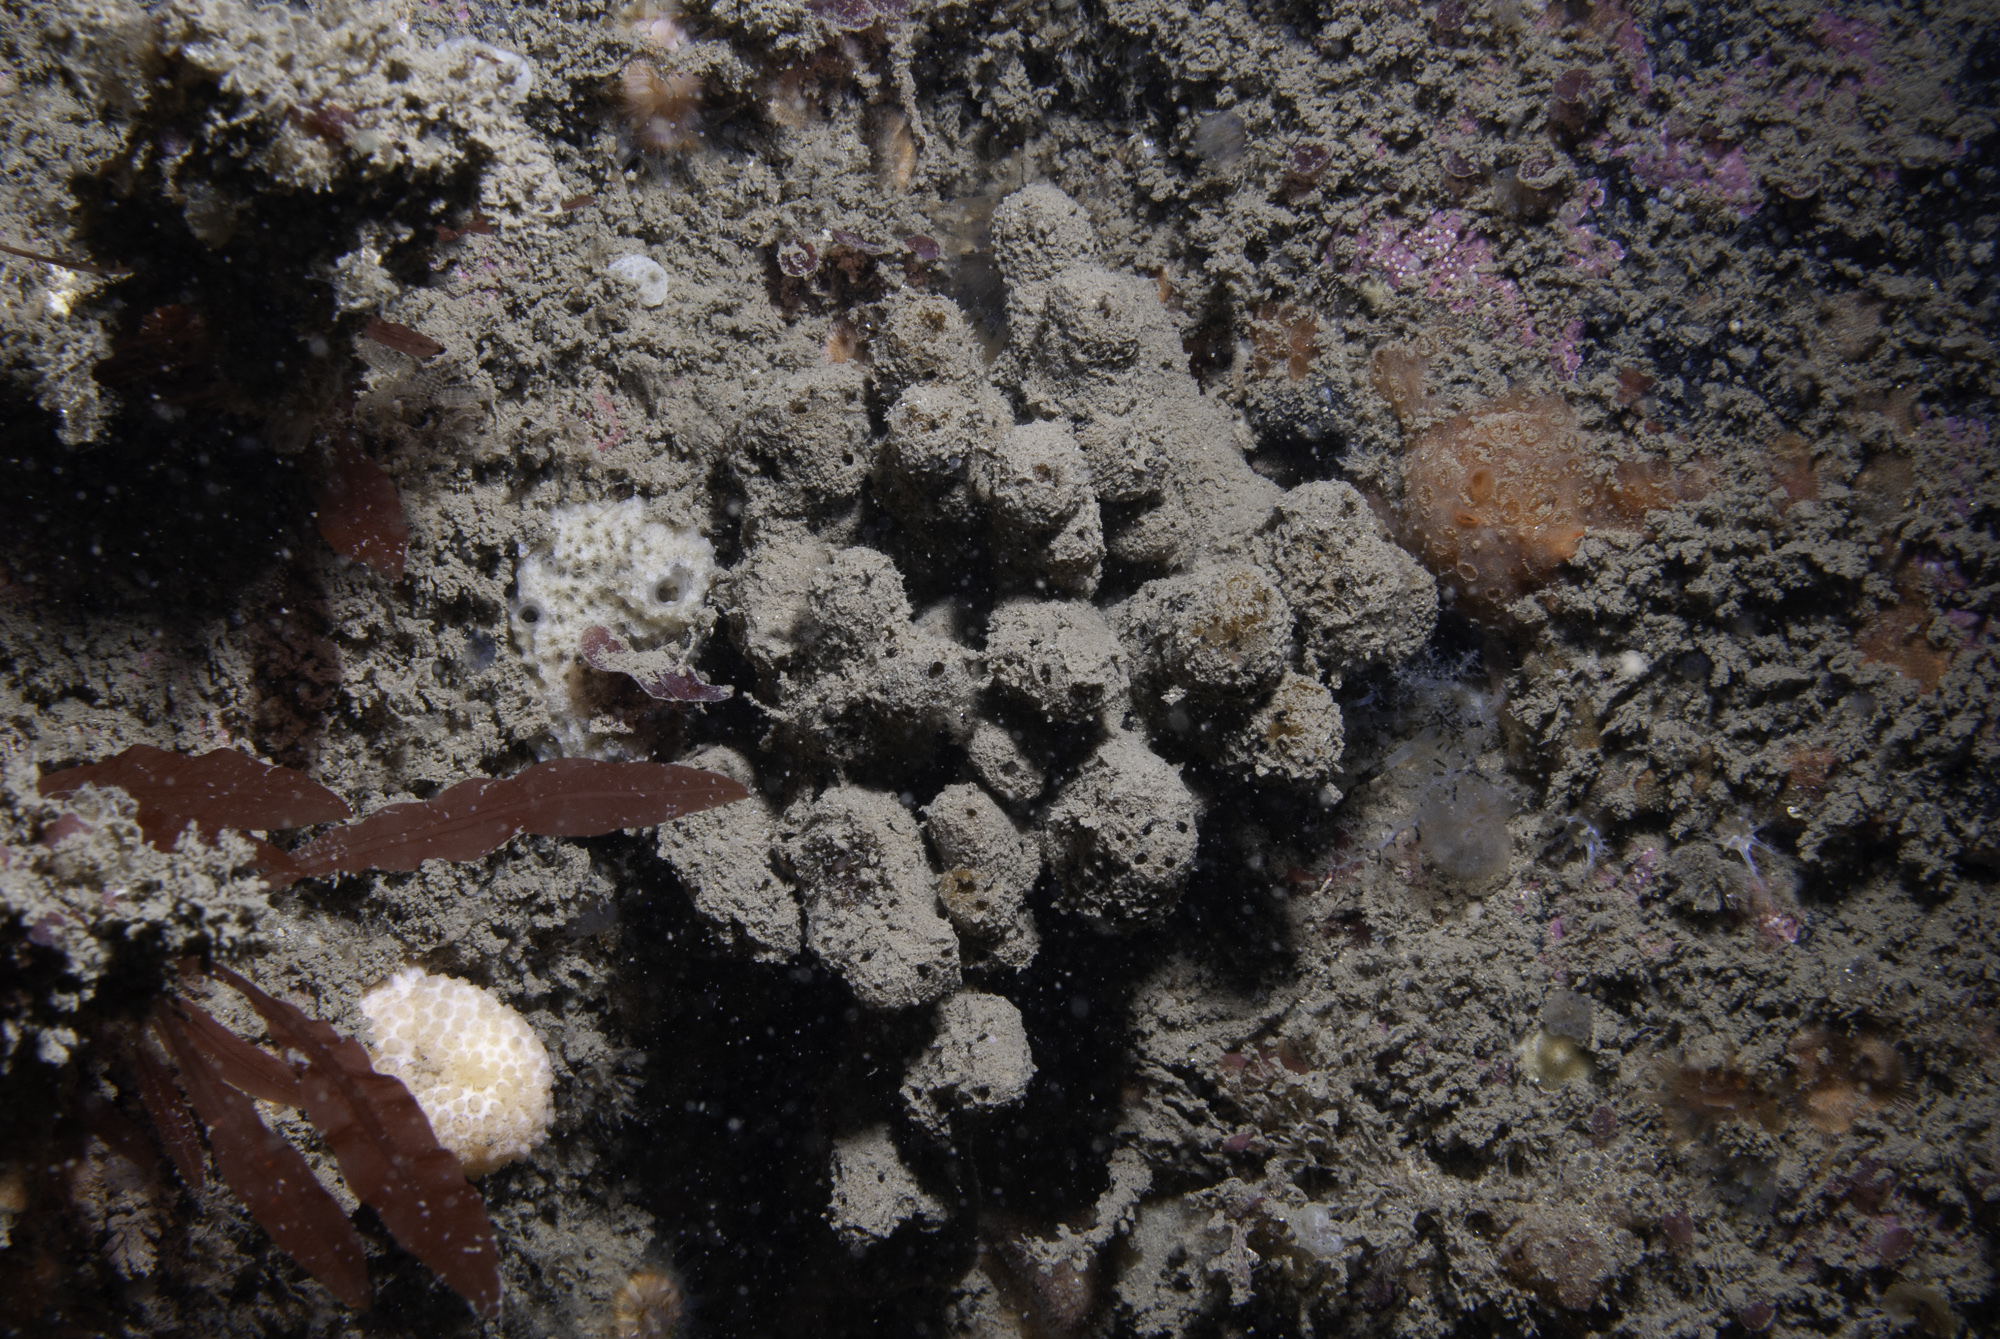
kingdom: Animalia
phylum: Porifera
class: Demospongiae
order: Axinellida
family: Raspailiidae
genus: Raspailia
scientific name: Raspailia ramosa
